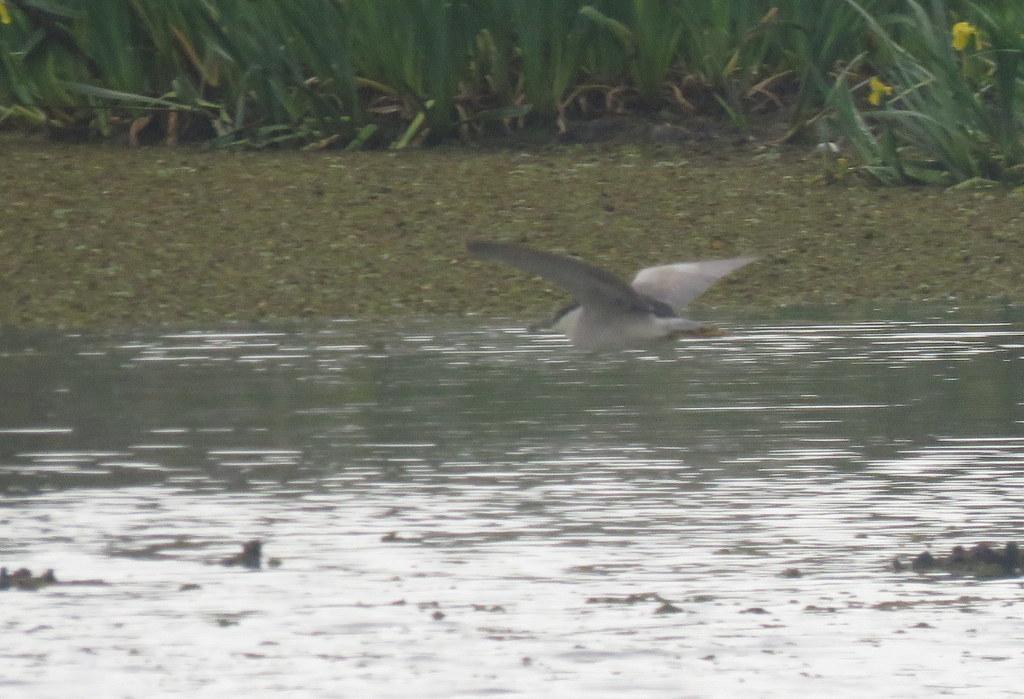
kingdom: Animalia
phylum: Chordata
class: Aves
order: Pelecaniformes
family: Ardeidae
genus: Nycticorax
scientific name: Nycticorax nycticorax
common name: Black-crowned night heron
